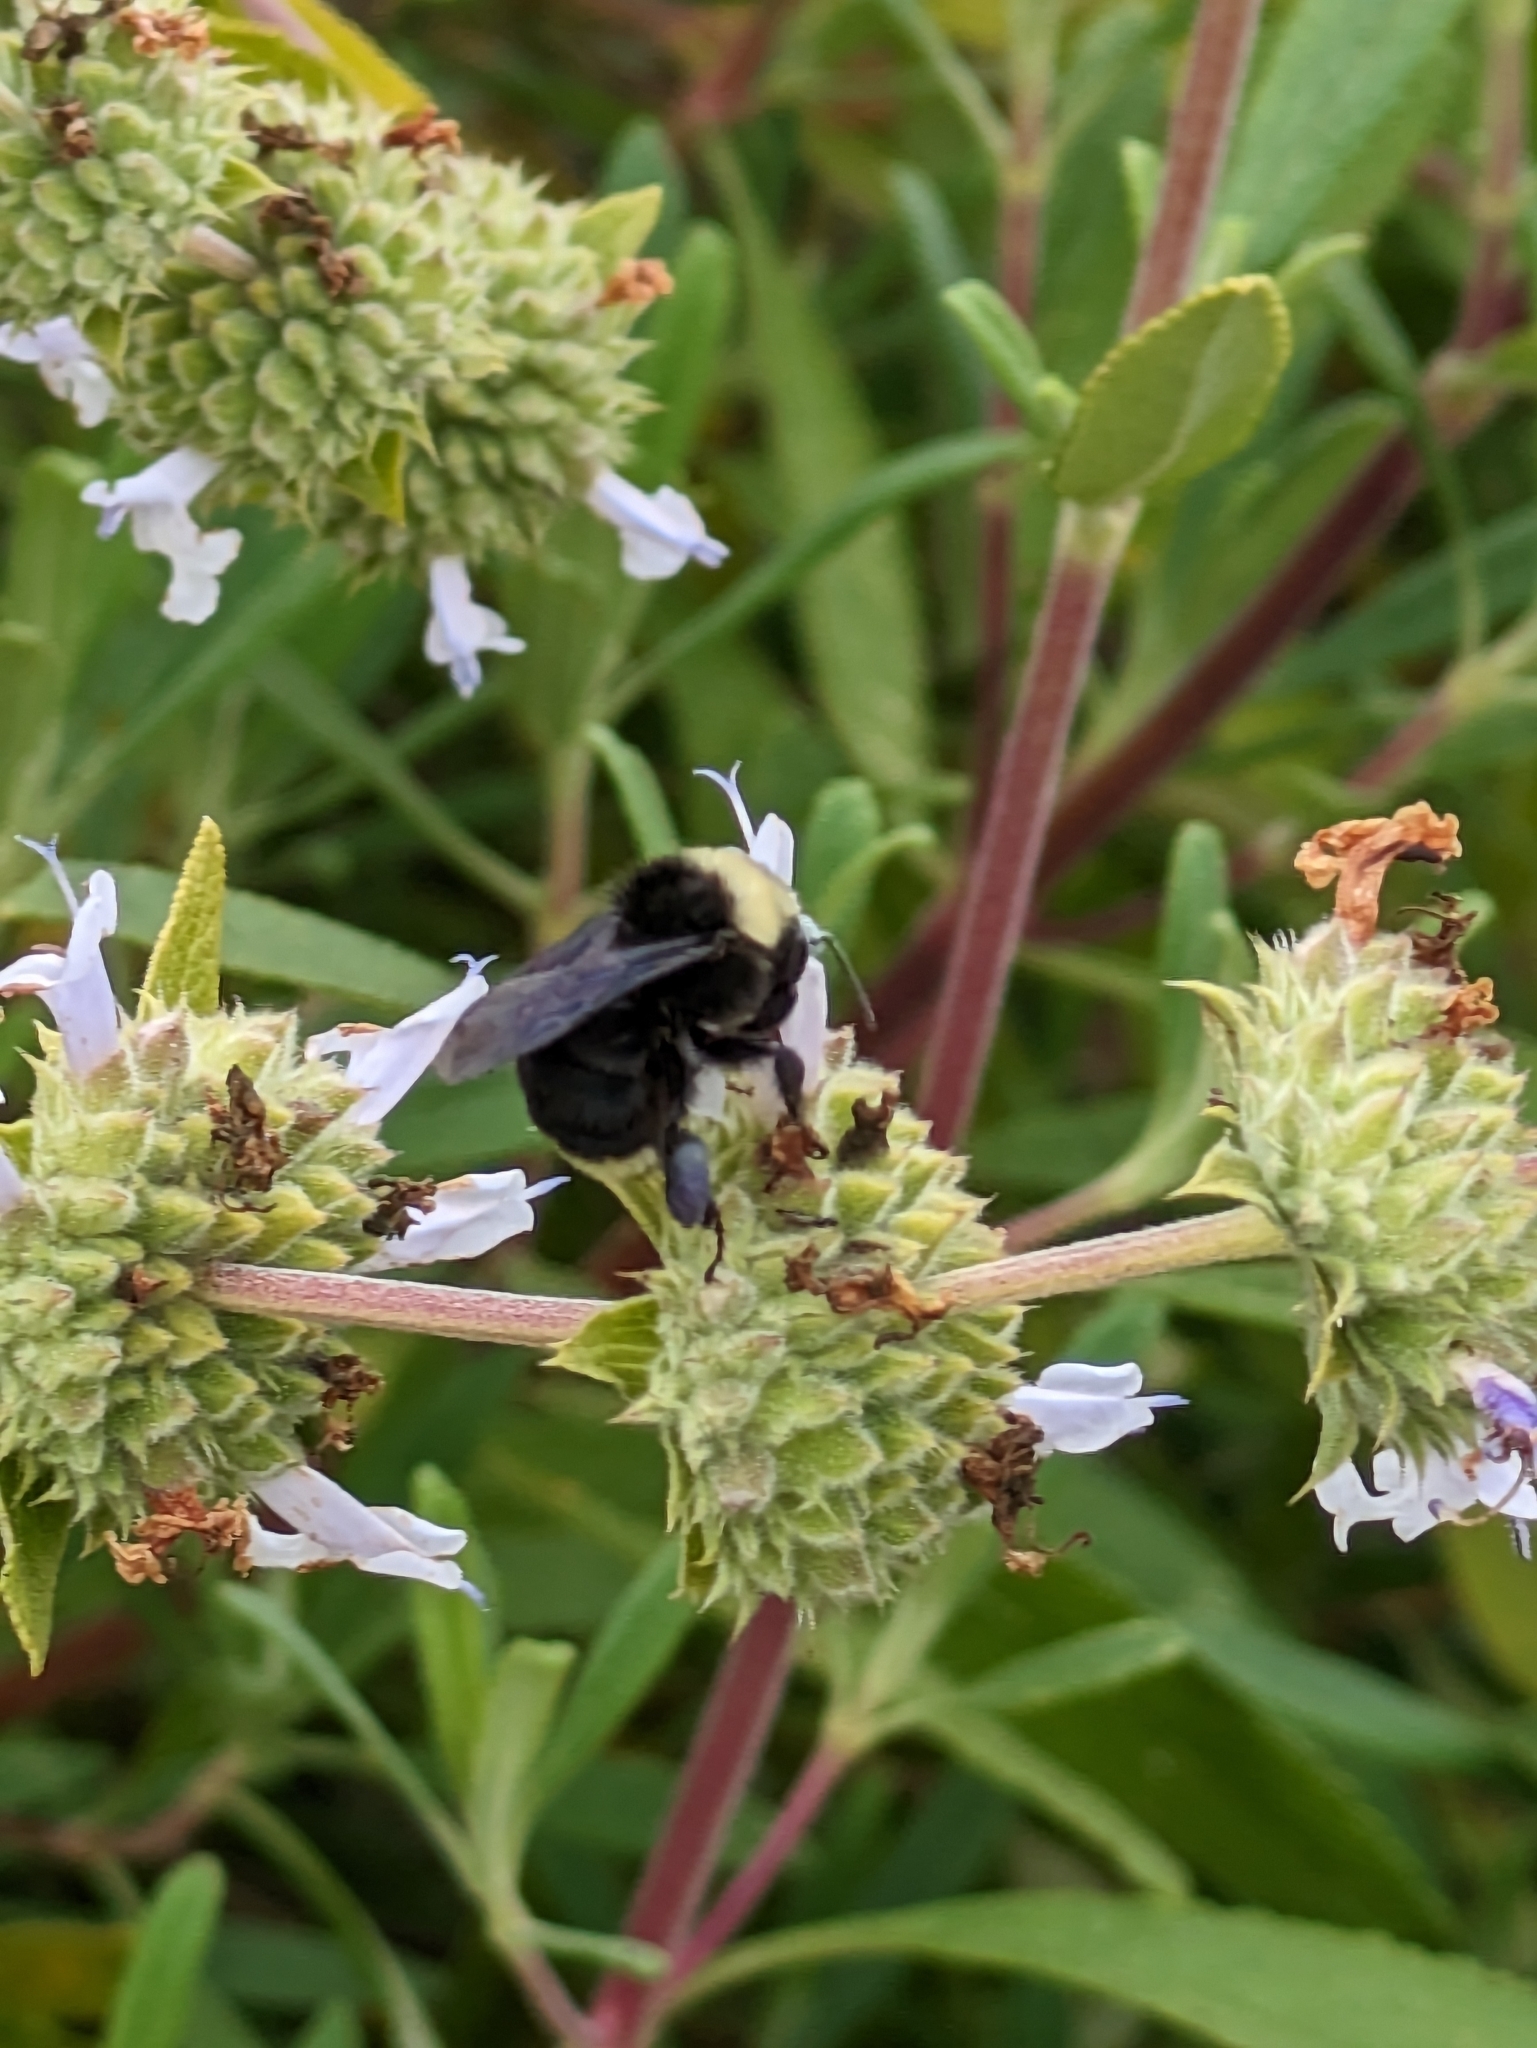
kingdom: Animalia
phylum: Arthropoda
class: Insecta
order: Hymenoptera
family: Apidae
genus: Bombus
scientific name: Bombus vosnesenskii
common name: Vosnesensky bumble bee
